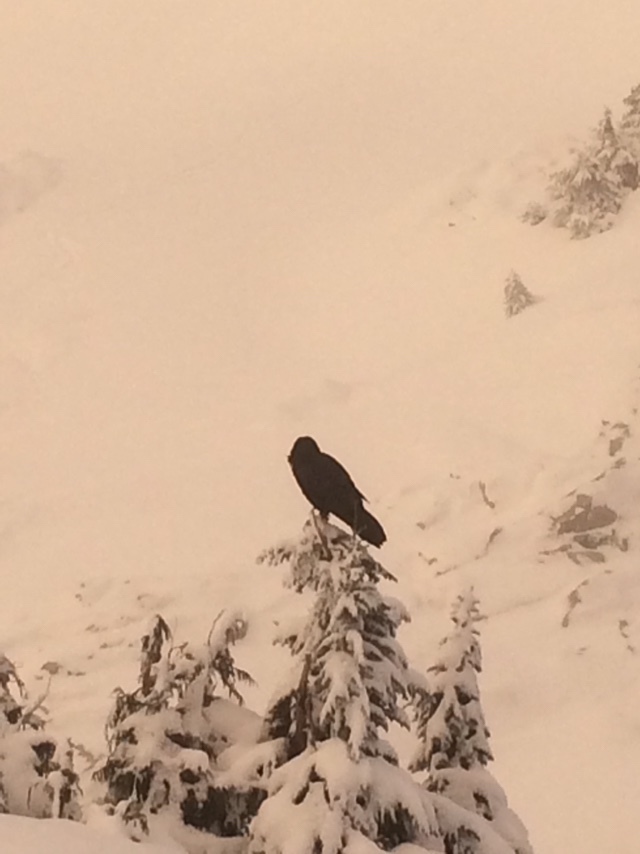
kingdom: Animalia
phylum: Chordata
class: Aves
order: Passeriformes
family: Corvidae
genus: Corvus
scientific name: Corvus corax
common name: Common raven
